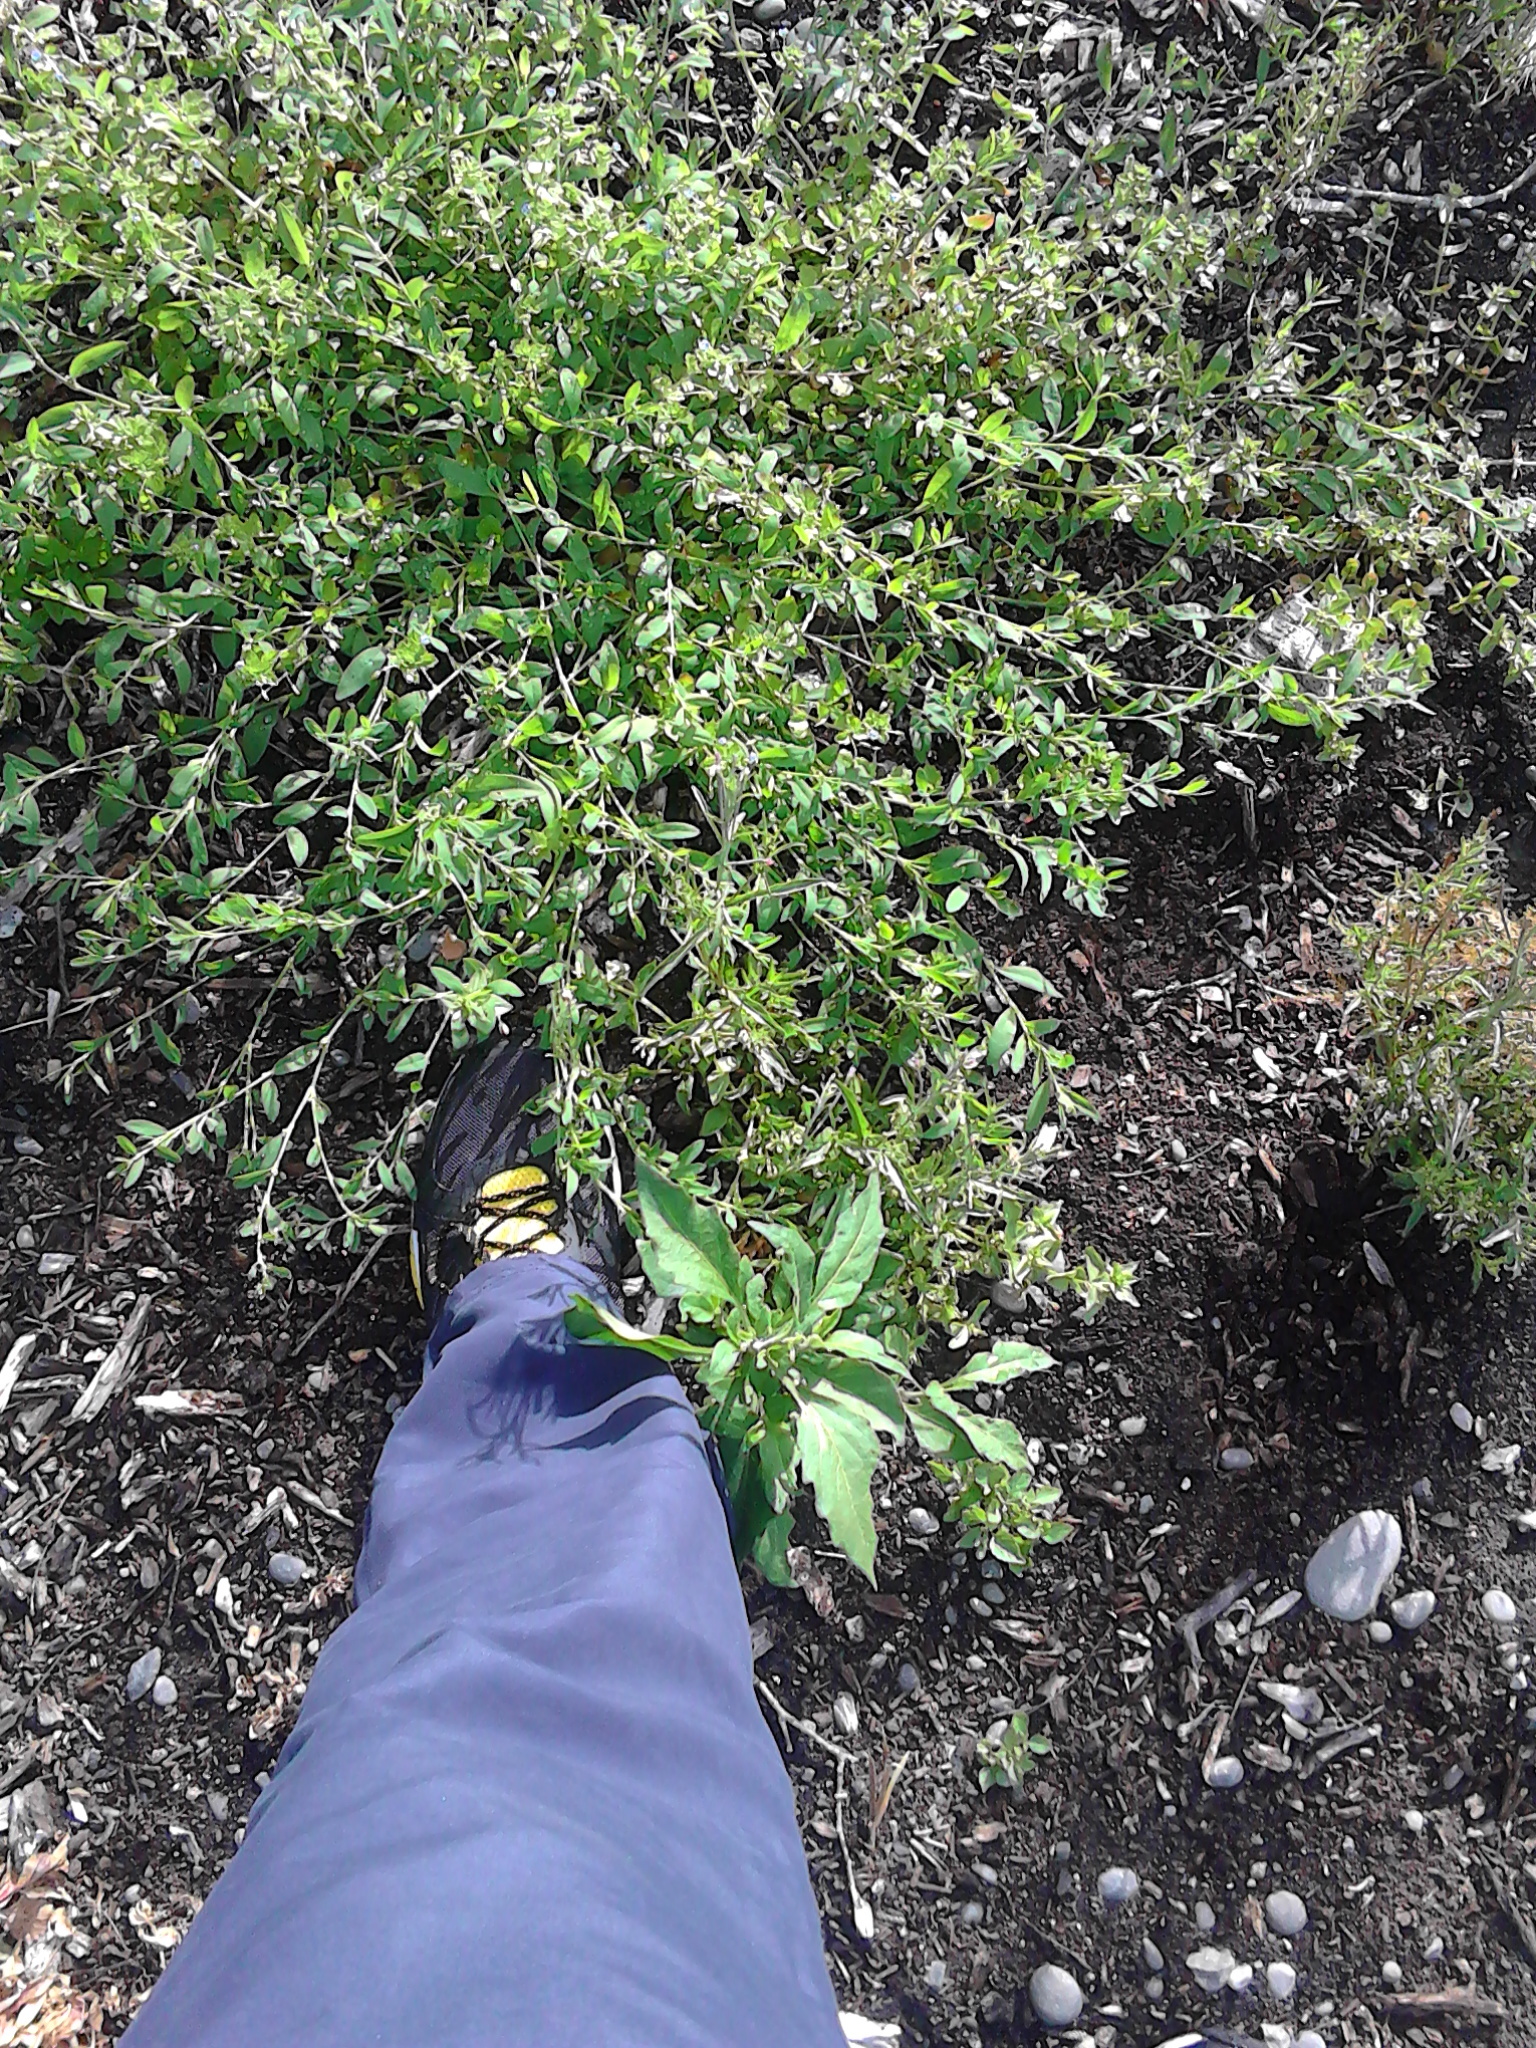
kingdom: Plantae
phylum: Tracheophyta
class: Magnoliopsida
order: Caryophyllales
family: Polygonaceae
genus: Polygonum
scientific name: Polygonum aviculare
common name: Prostrate knotweed
